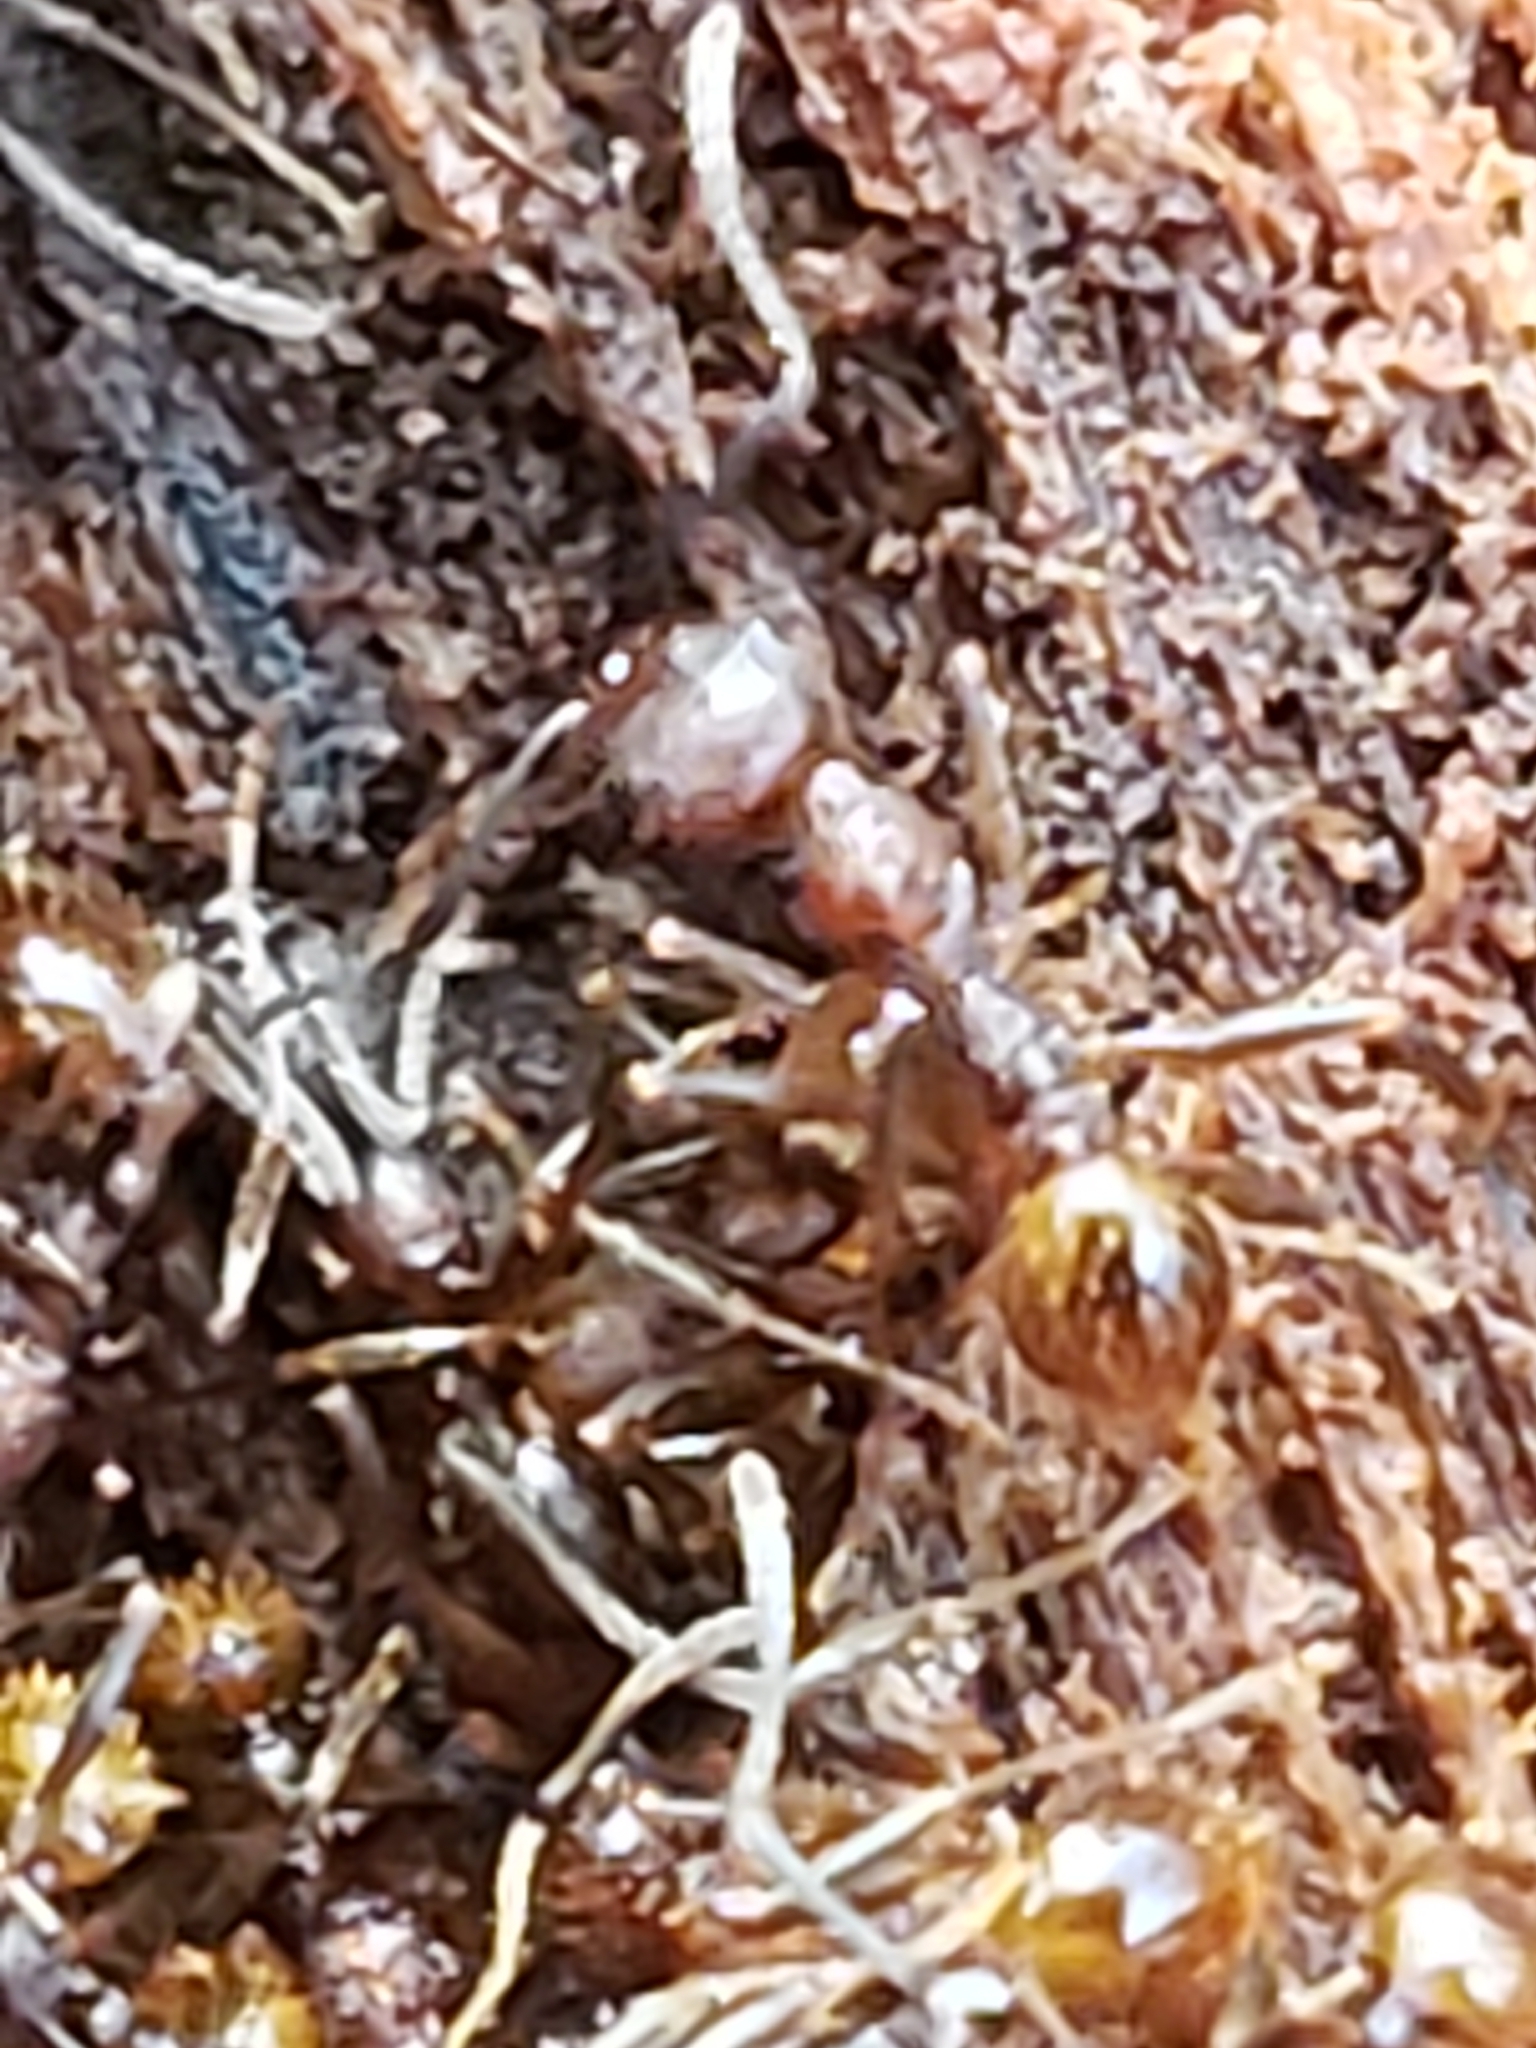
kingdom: Animalia
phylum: Arthropoda
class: Insecta
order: Hymenoptera
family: Formicidae
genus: Aphaenogaster
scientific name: Aphaenogaster fulva
